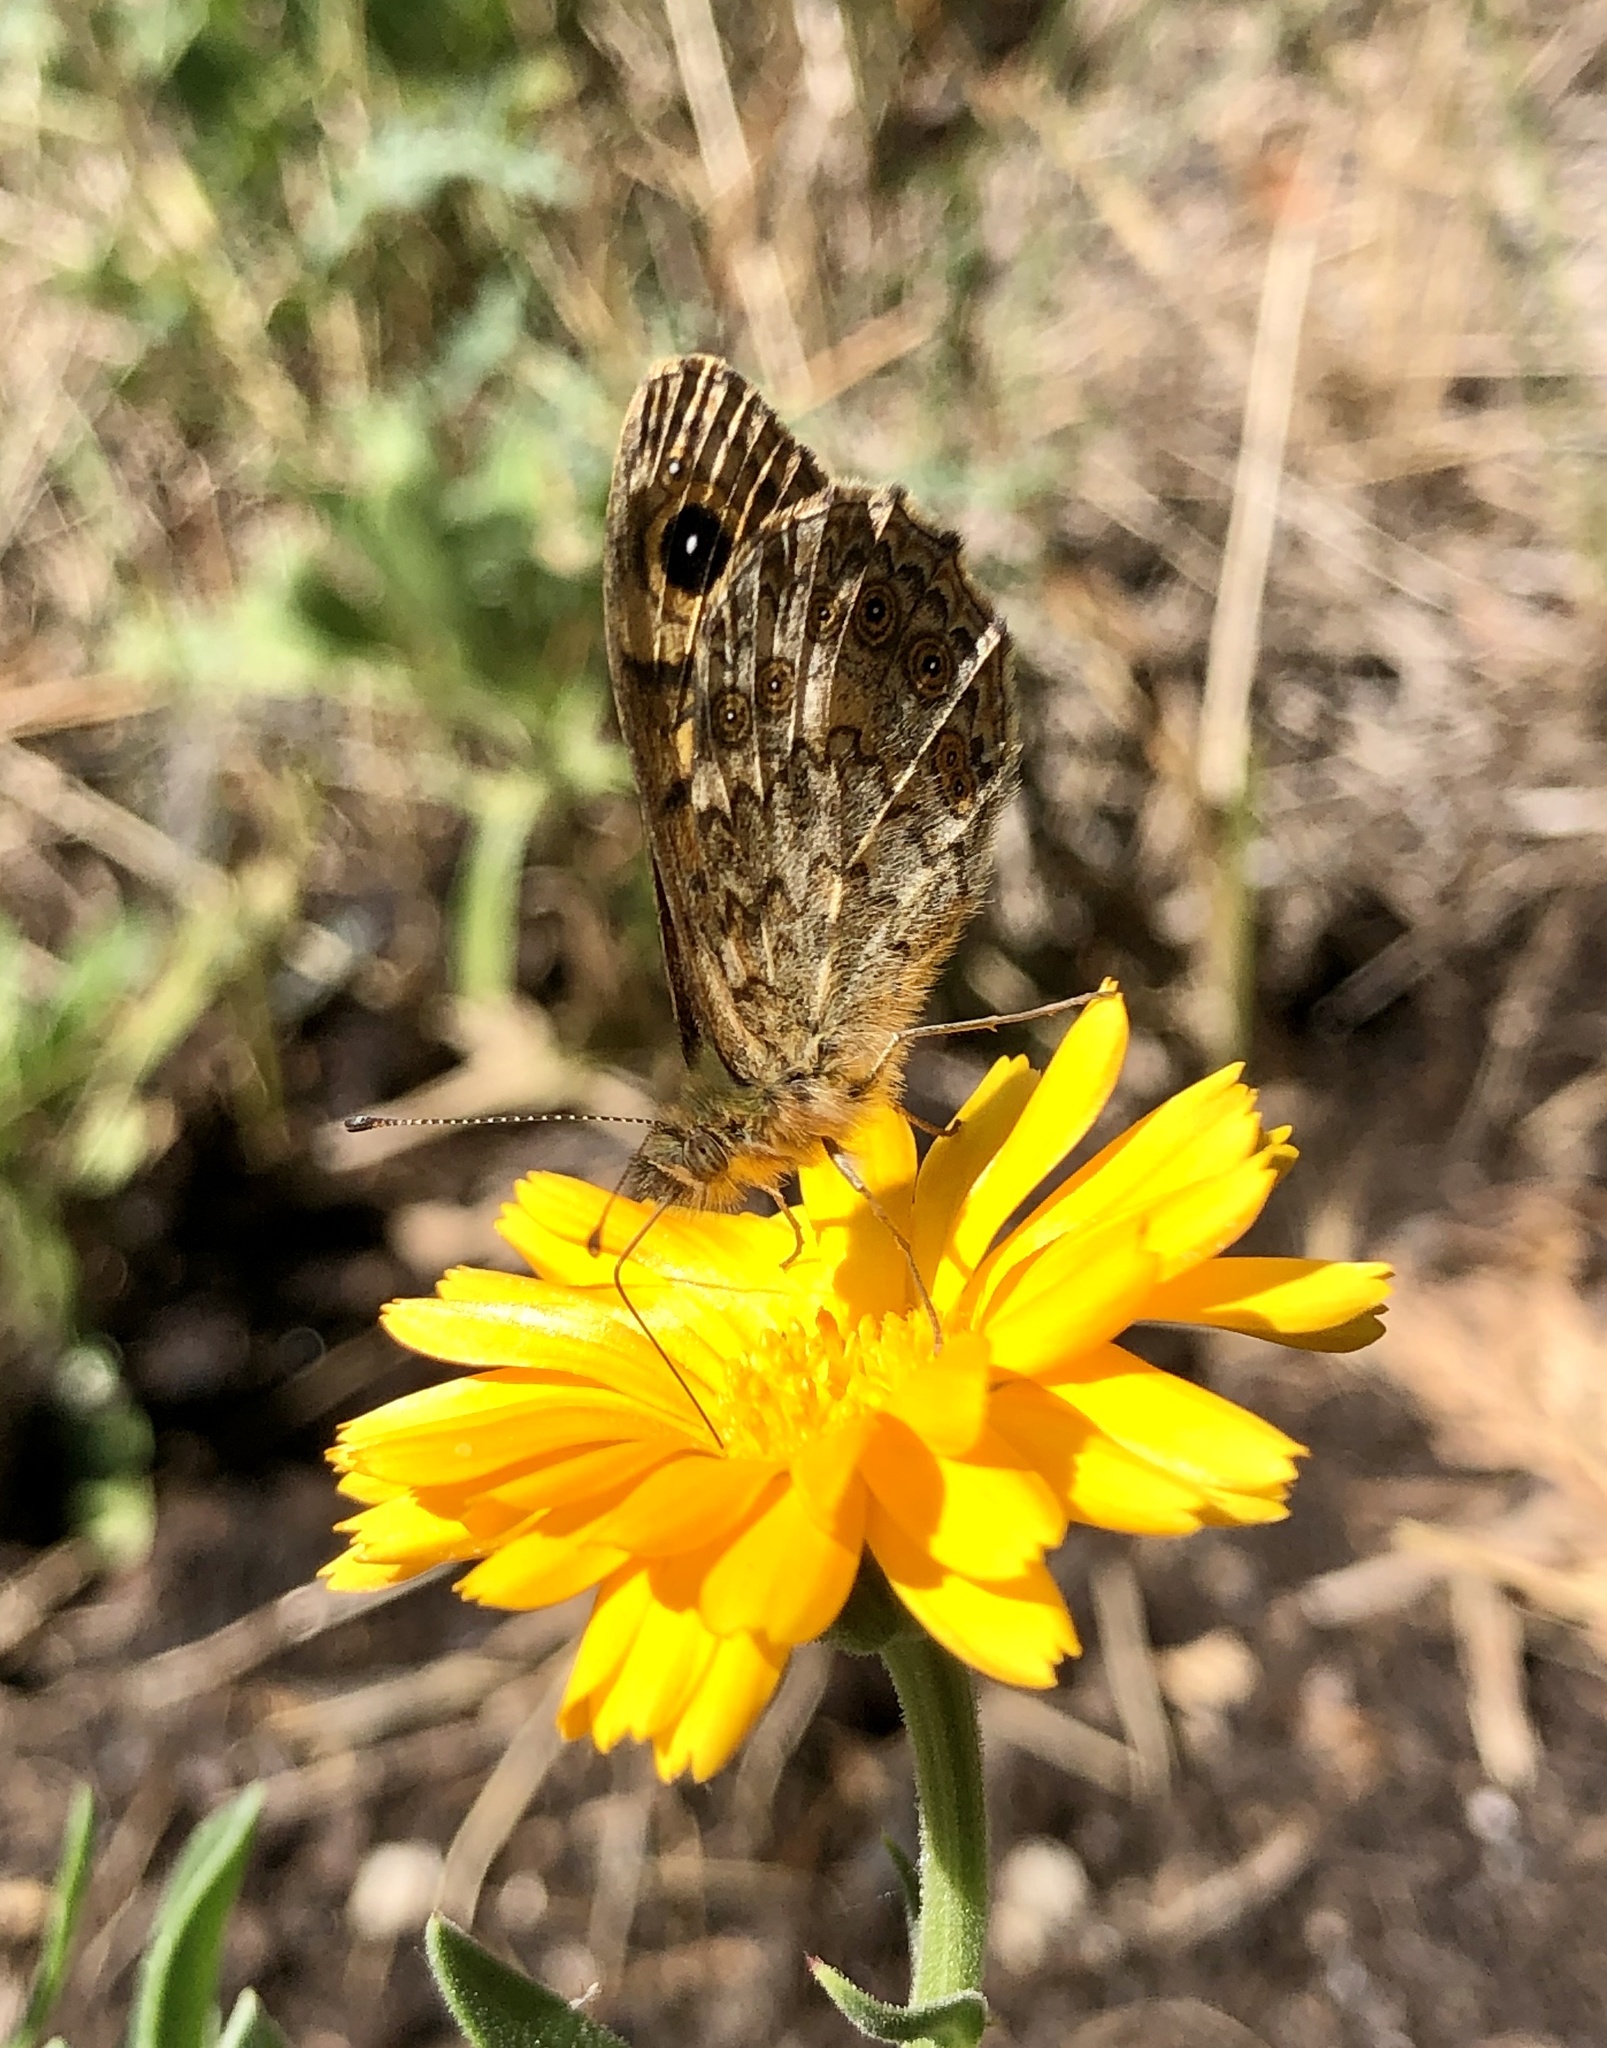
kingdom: Animalia
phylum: Arthropoda
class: Insecta
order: Lepidoptera
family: Nymphalidae
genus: Pararge
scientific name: Pararge Lasiommata megera
